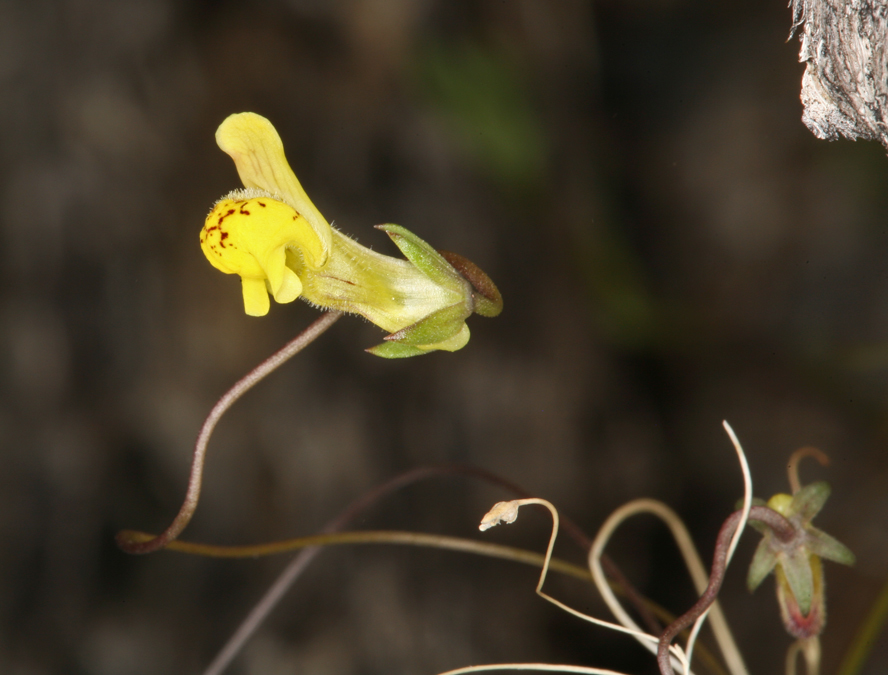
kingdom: Plantae
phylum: Tracheophyta
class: Magnoliopsida
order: Lamiales
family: Plantaginaceae
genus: Neogaerrhinum
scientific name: Neogaerrhinum filipes
